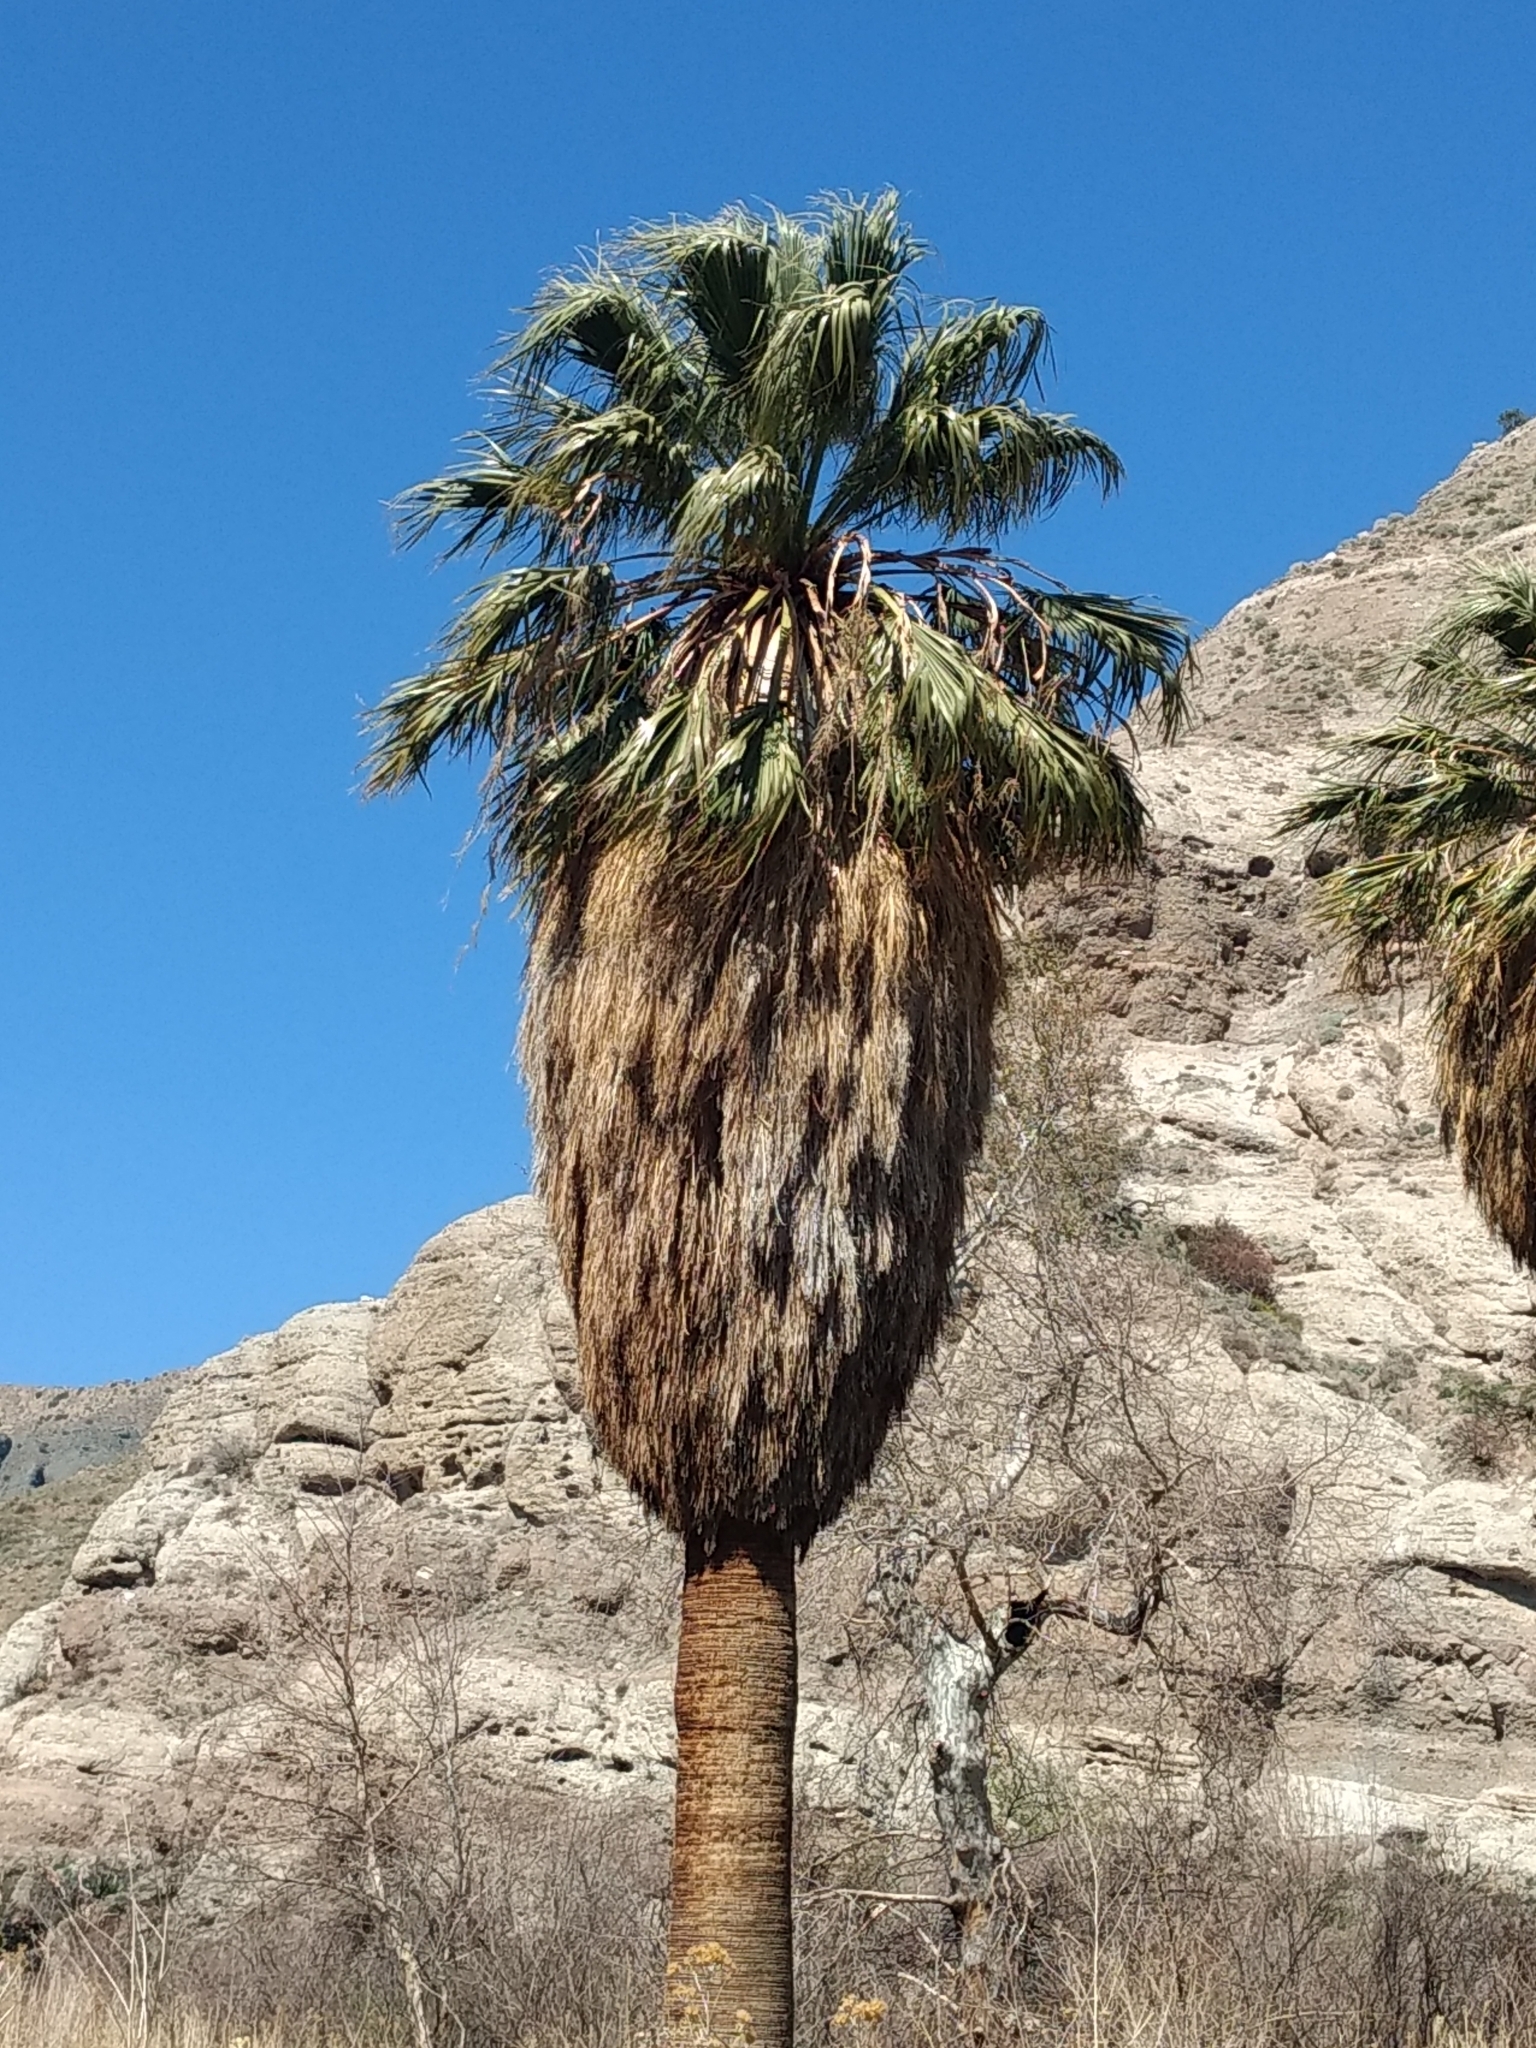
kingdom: Plantae
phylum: Tracheophyta
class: Liliopsida
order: Arecales
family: Arecaceae
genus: Washingtonia
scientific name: Washingtonia filifera
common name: California fan palm
